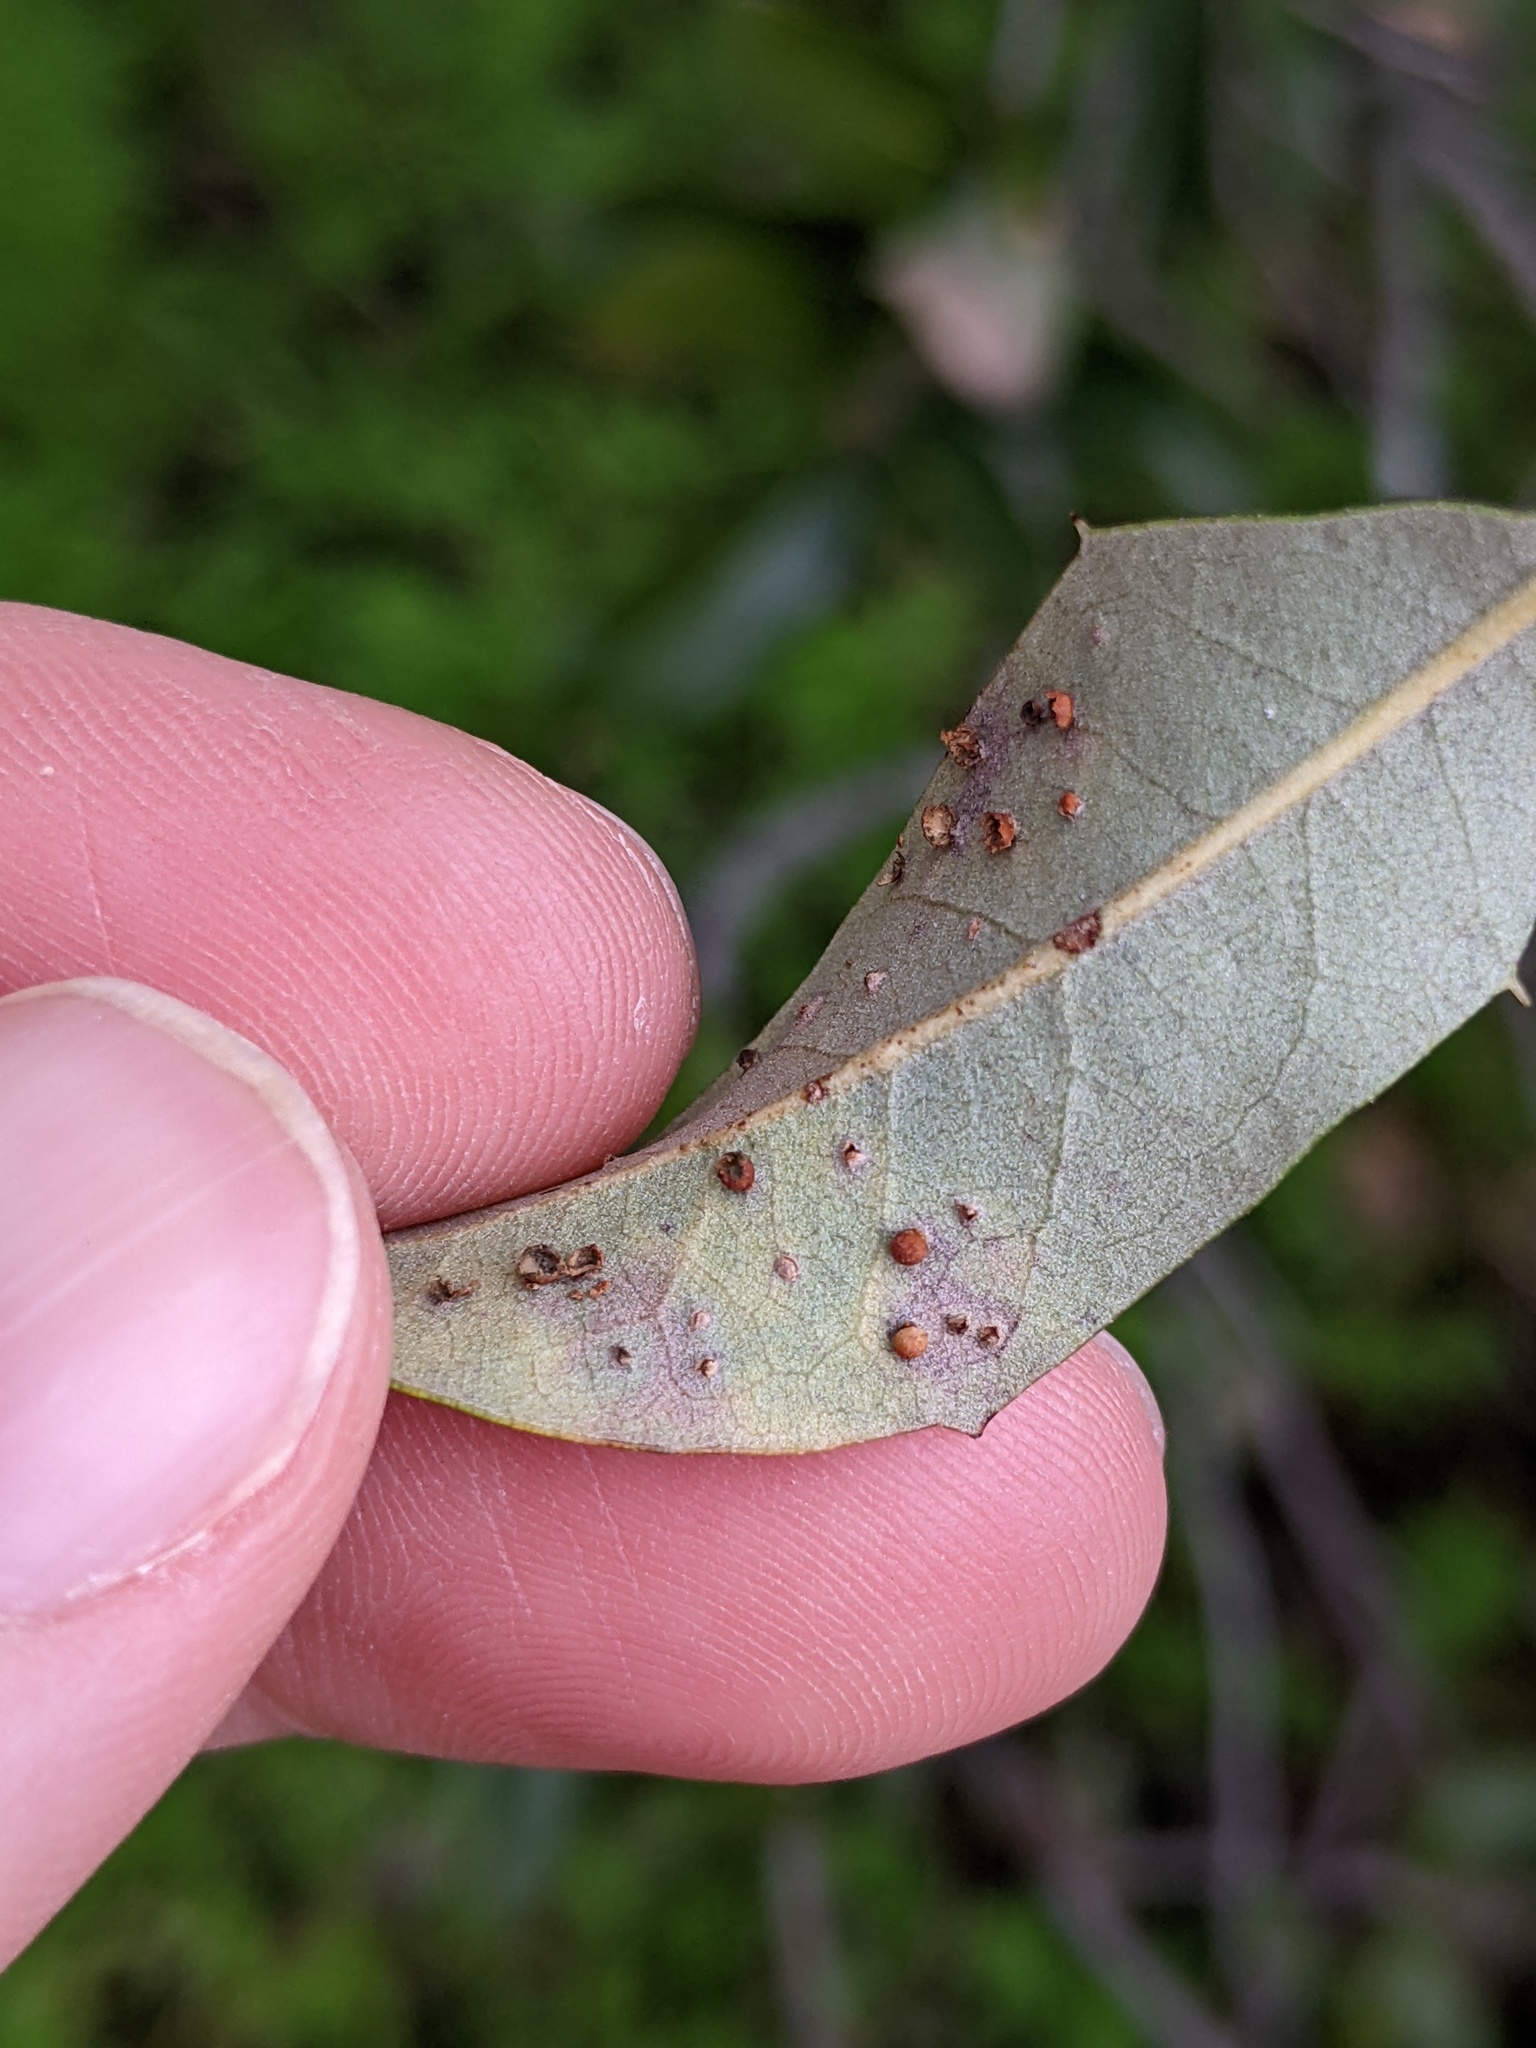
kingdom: Animalia
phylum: Arthropoda
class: Insecta
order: Hymenoptera
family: Cynipidae
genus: Neuroterus
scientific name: Neuroterus saltarius
